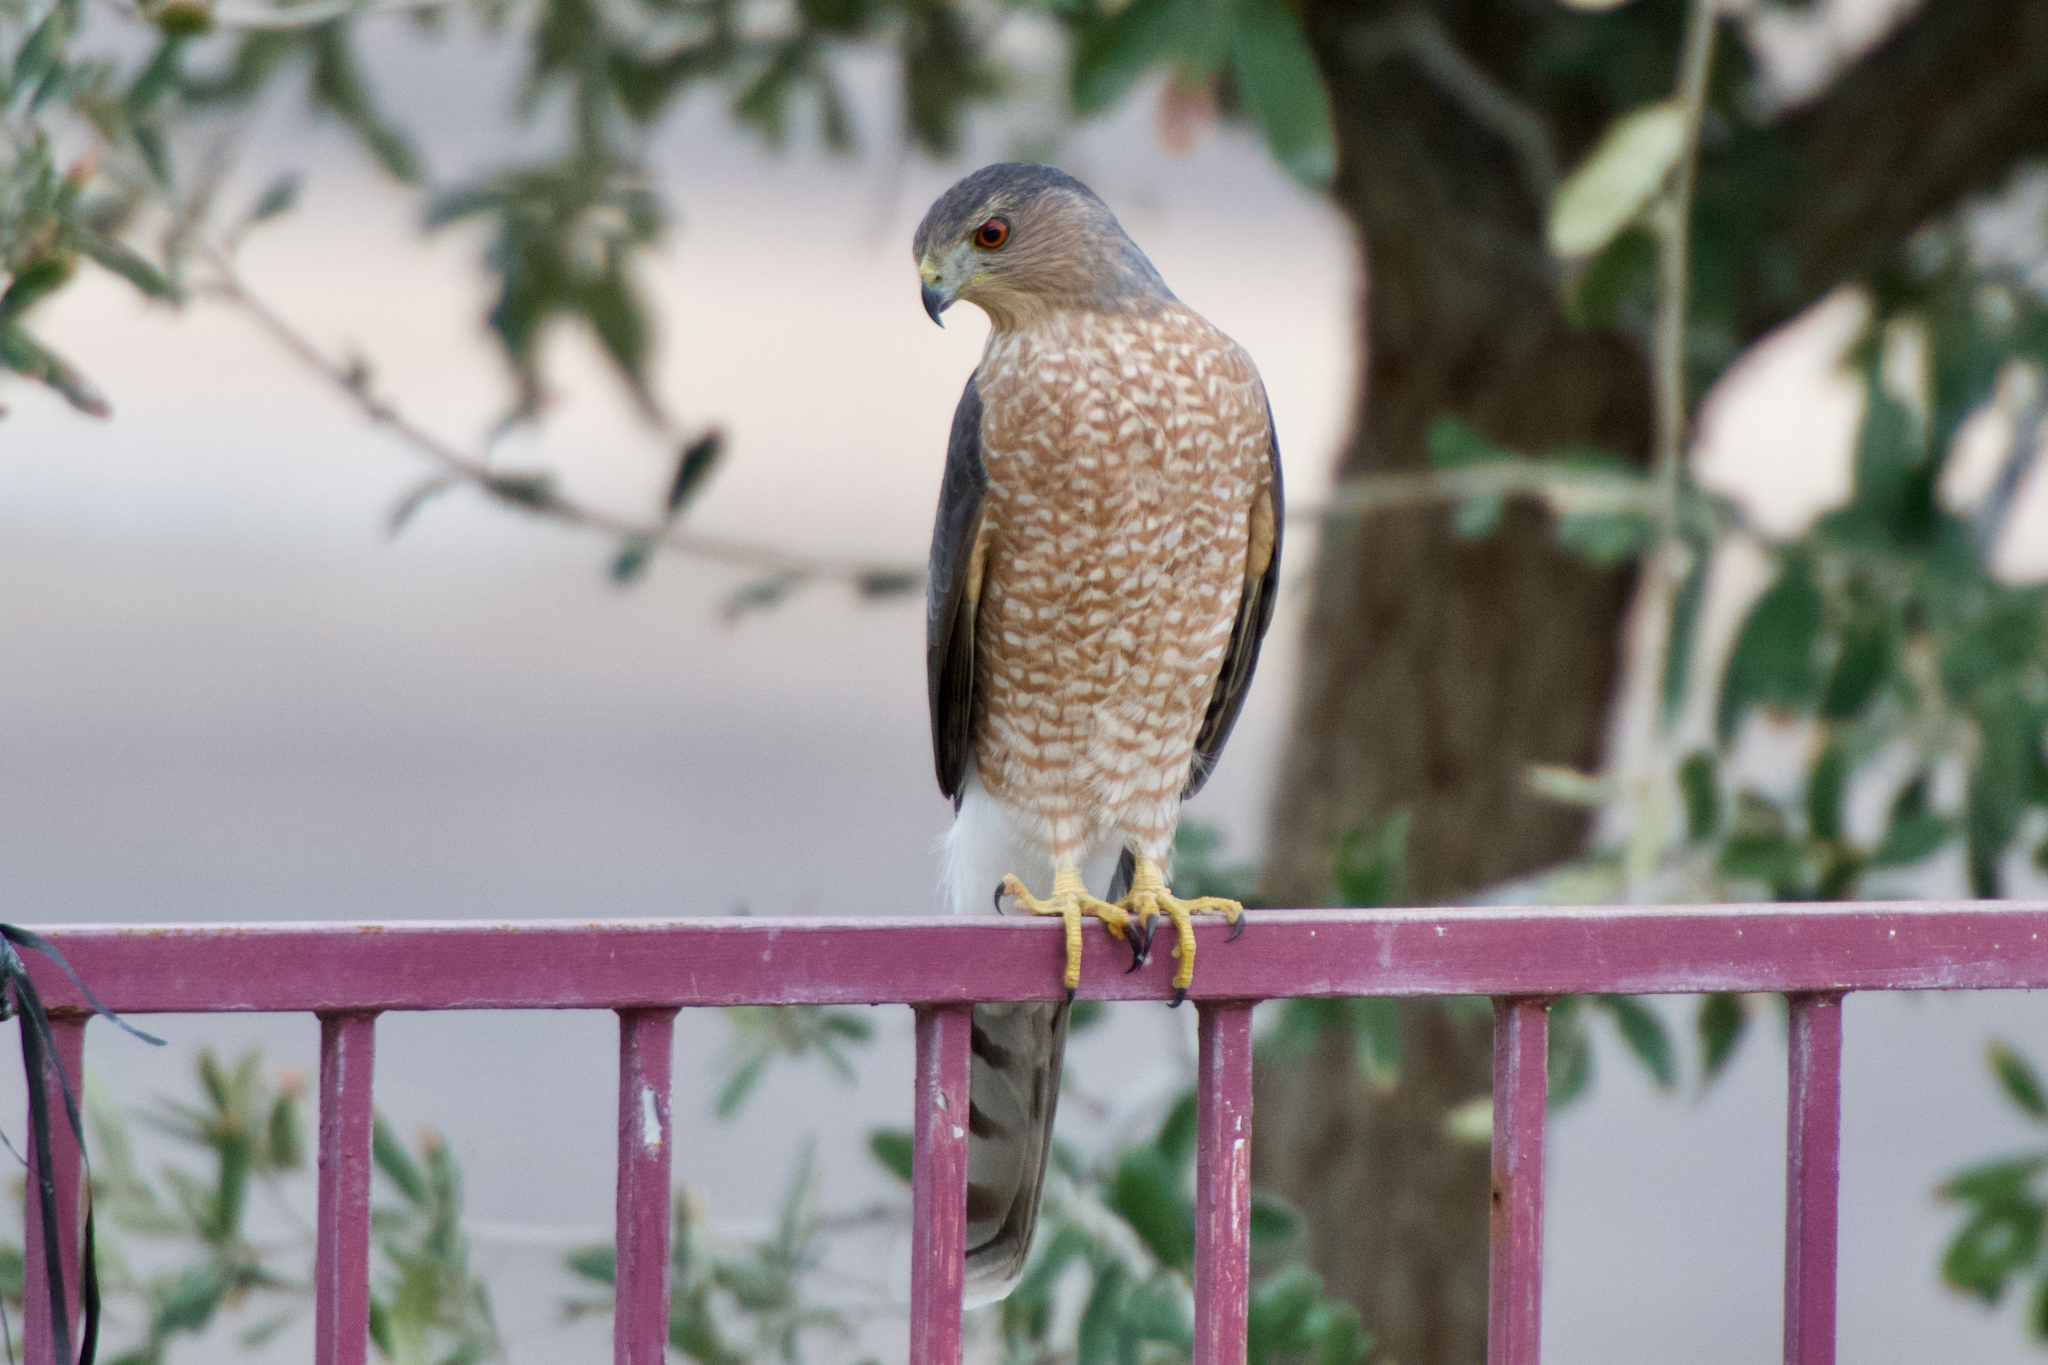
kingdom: Animalia
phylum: Chordata
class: Aves
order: Accipitriformes
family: Accipitridae
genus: Accipiter
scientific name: Accipiter cooperii
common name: Cooper's hawk
